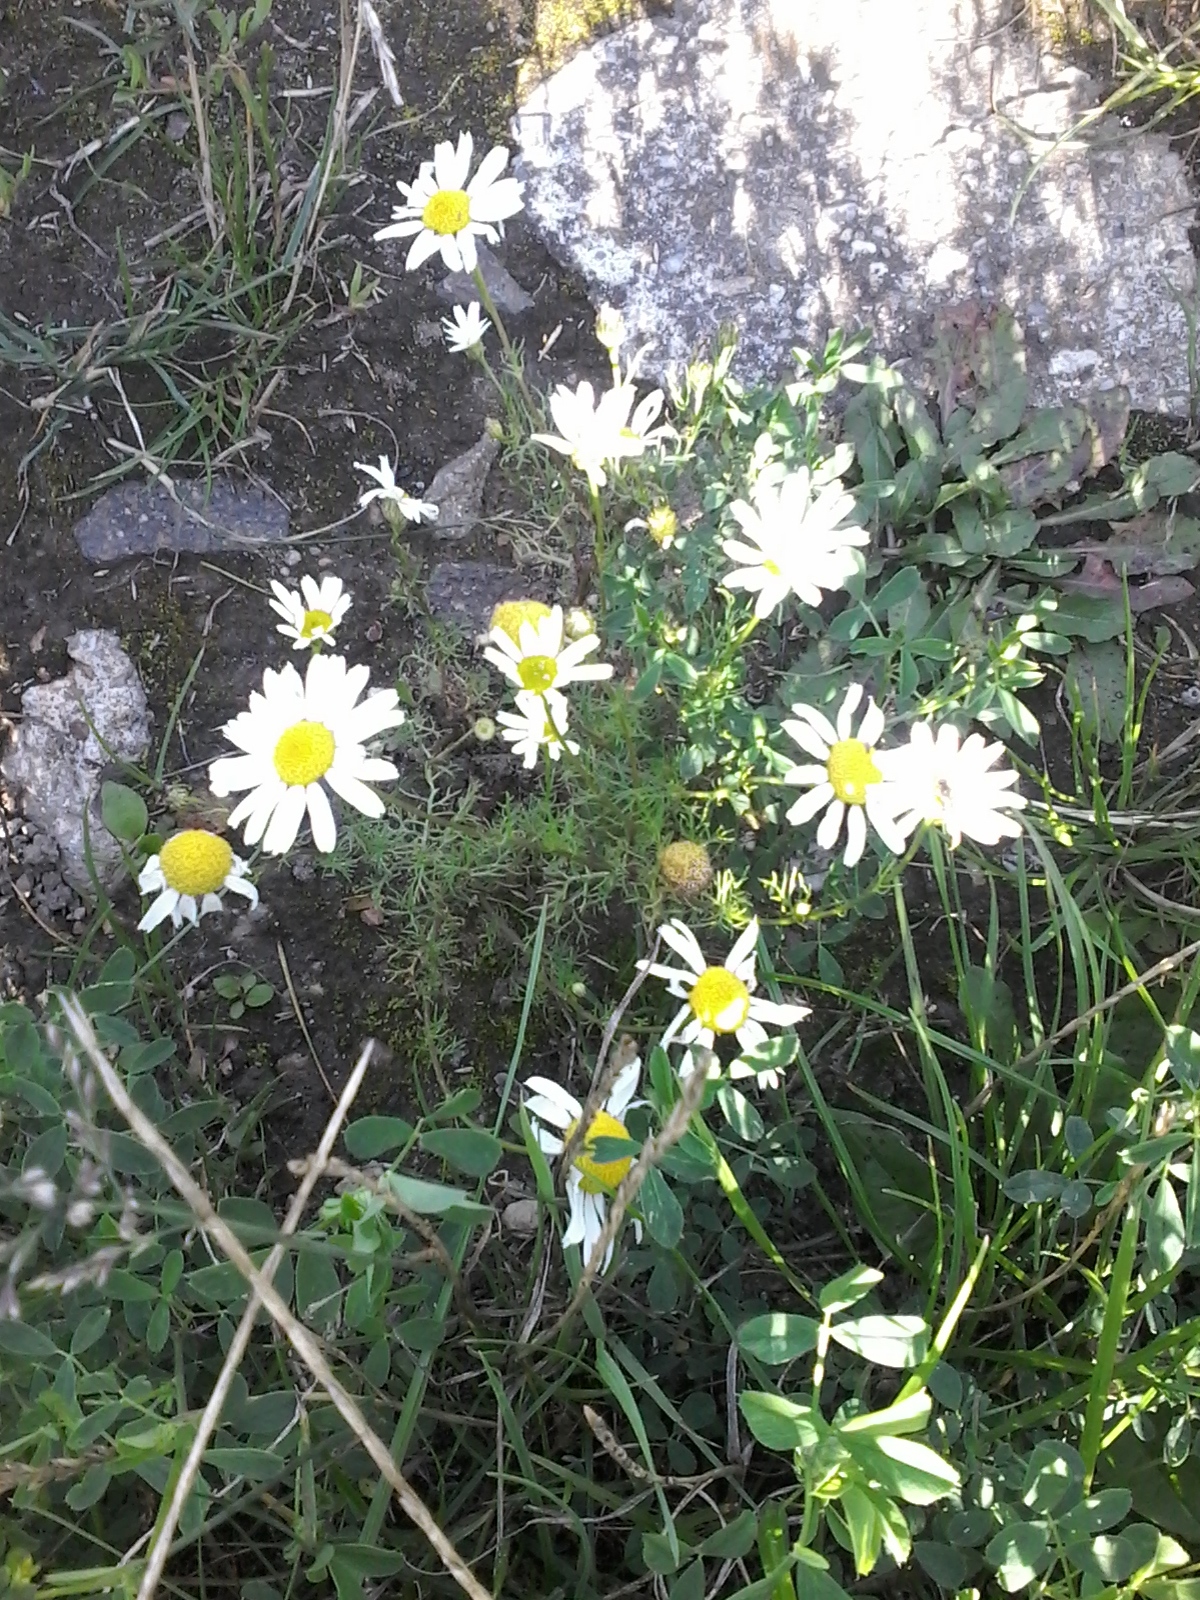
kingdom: Plantae
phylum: Tracheophyta
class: Magnoliopsida
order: Asterales
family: Asteraceae
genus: Tripleurospermum
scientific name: Tripleurospermum maritimum
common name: Sea mayweed
